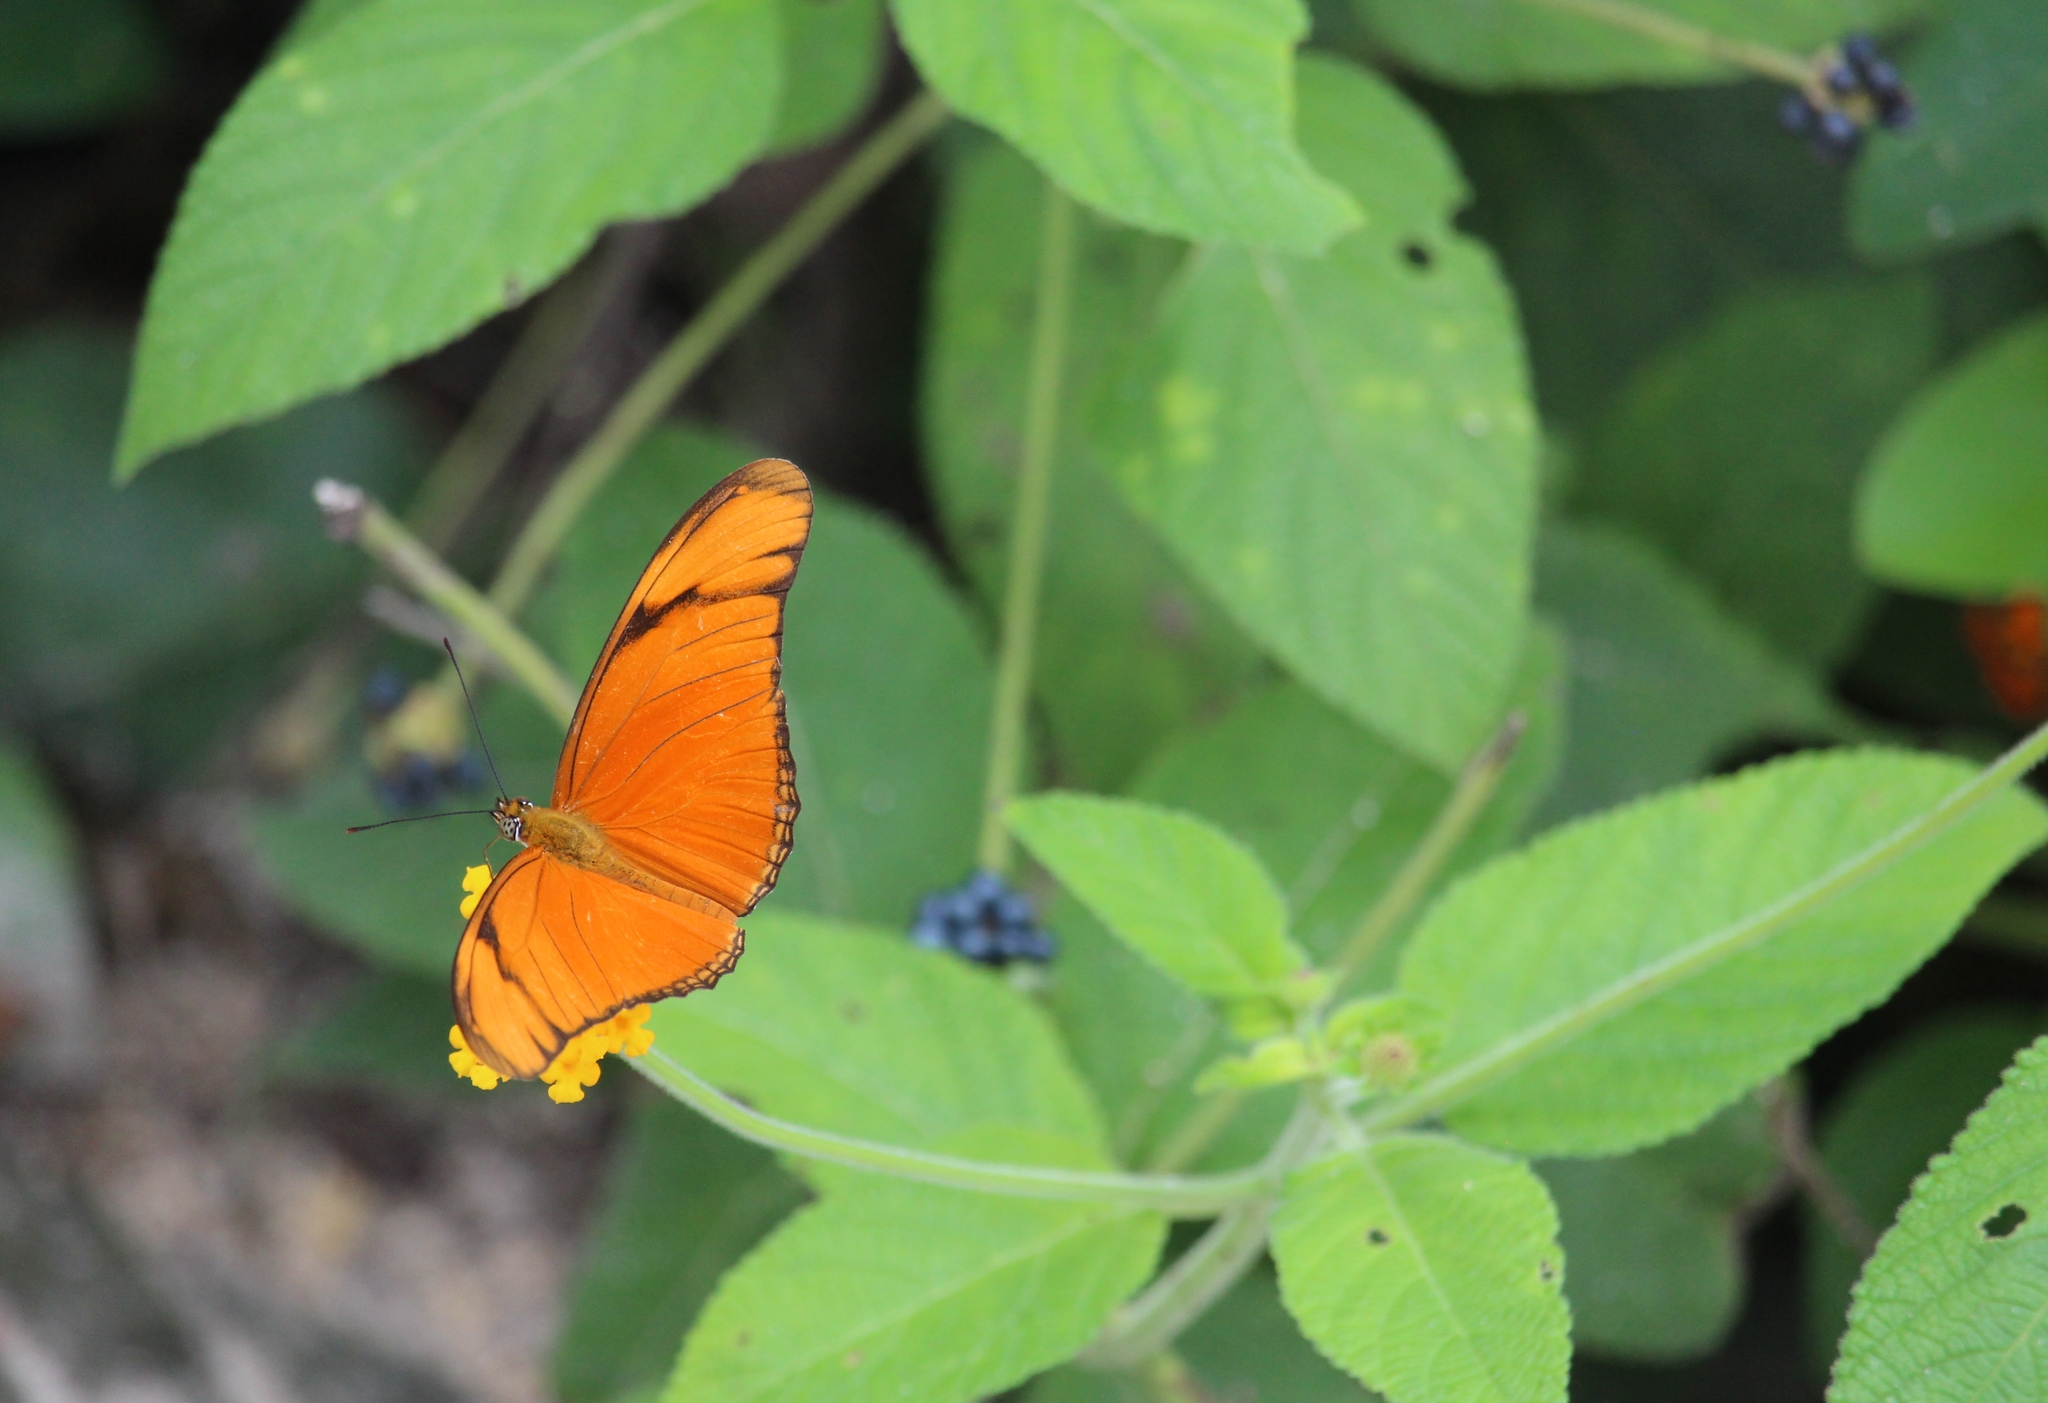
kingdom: Animalia
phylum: Arthropoda
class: Insecta
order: Lepidoptera
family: Nymphalidae
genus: Dryas
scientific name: Dryas iulia
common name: Flambeau
